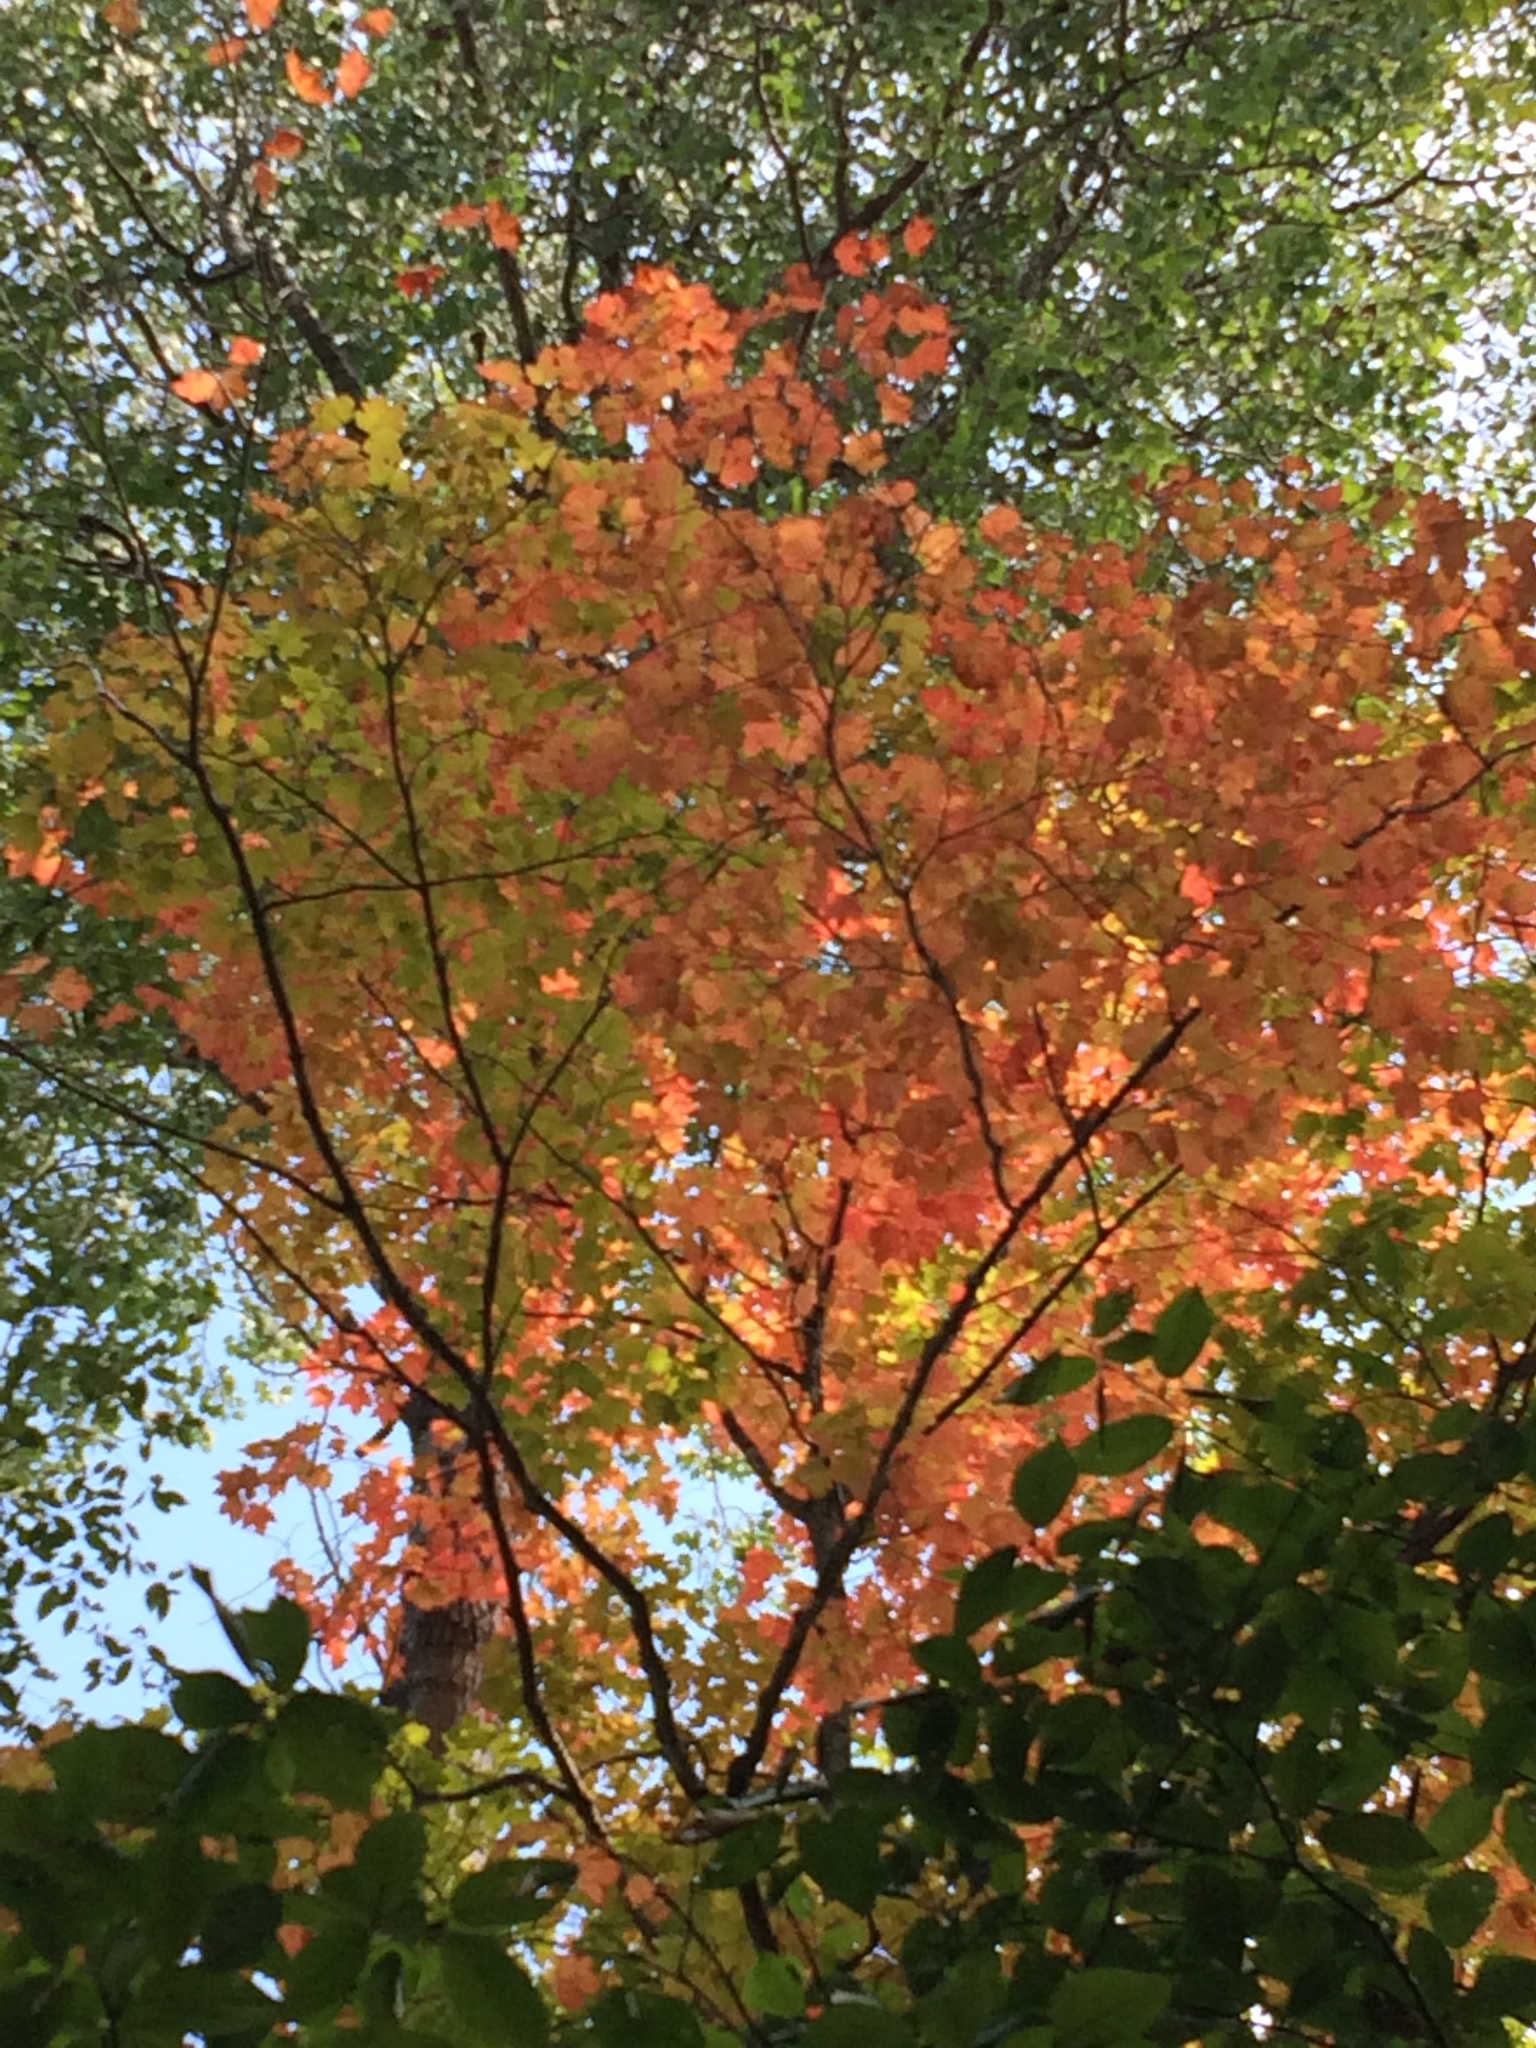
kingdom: Plantae
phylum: Tracheophyta
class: Magnoliopsida
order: Sapindales
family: Sapindaceae
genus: Acer
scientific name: Acer saccharum
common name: Sugar maple
